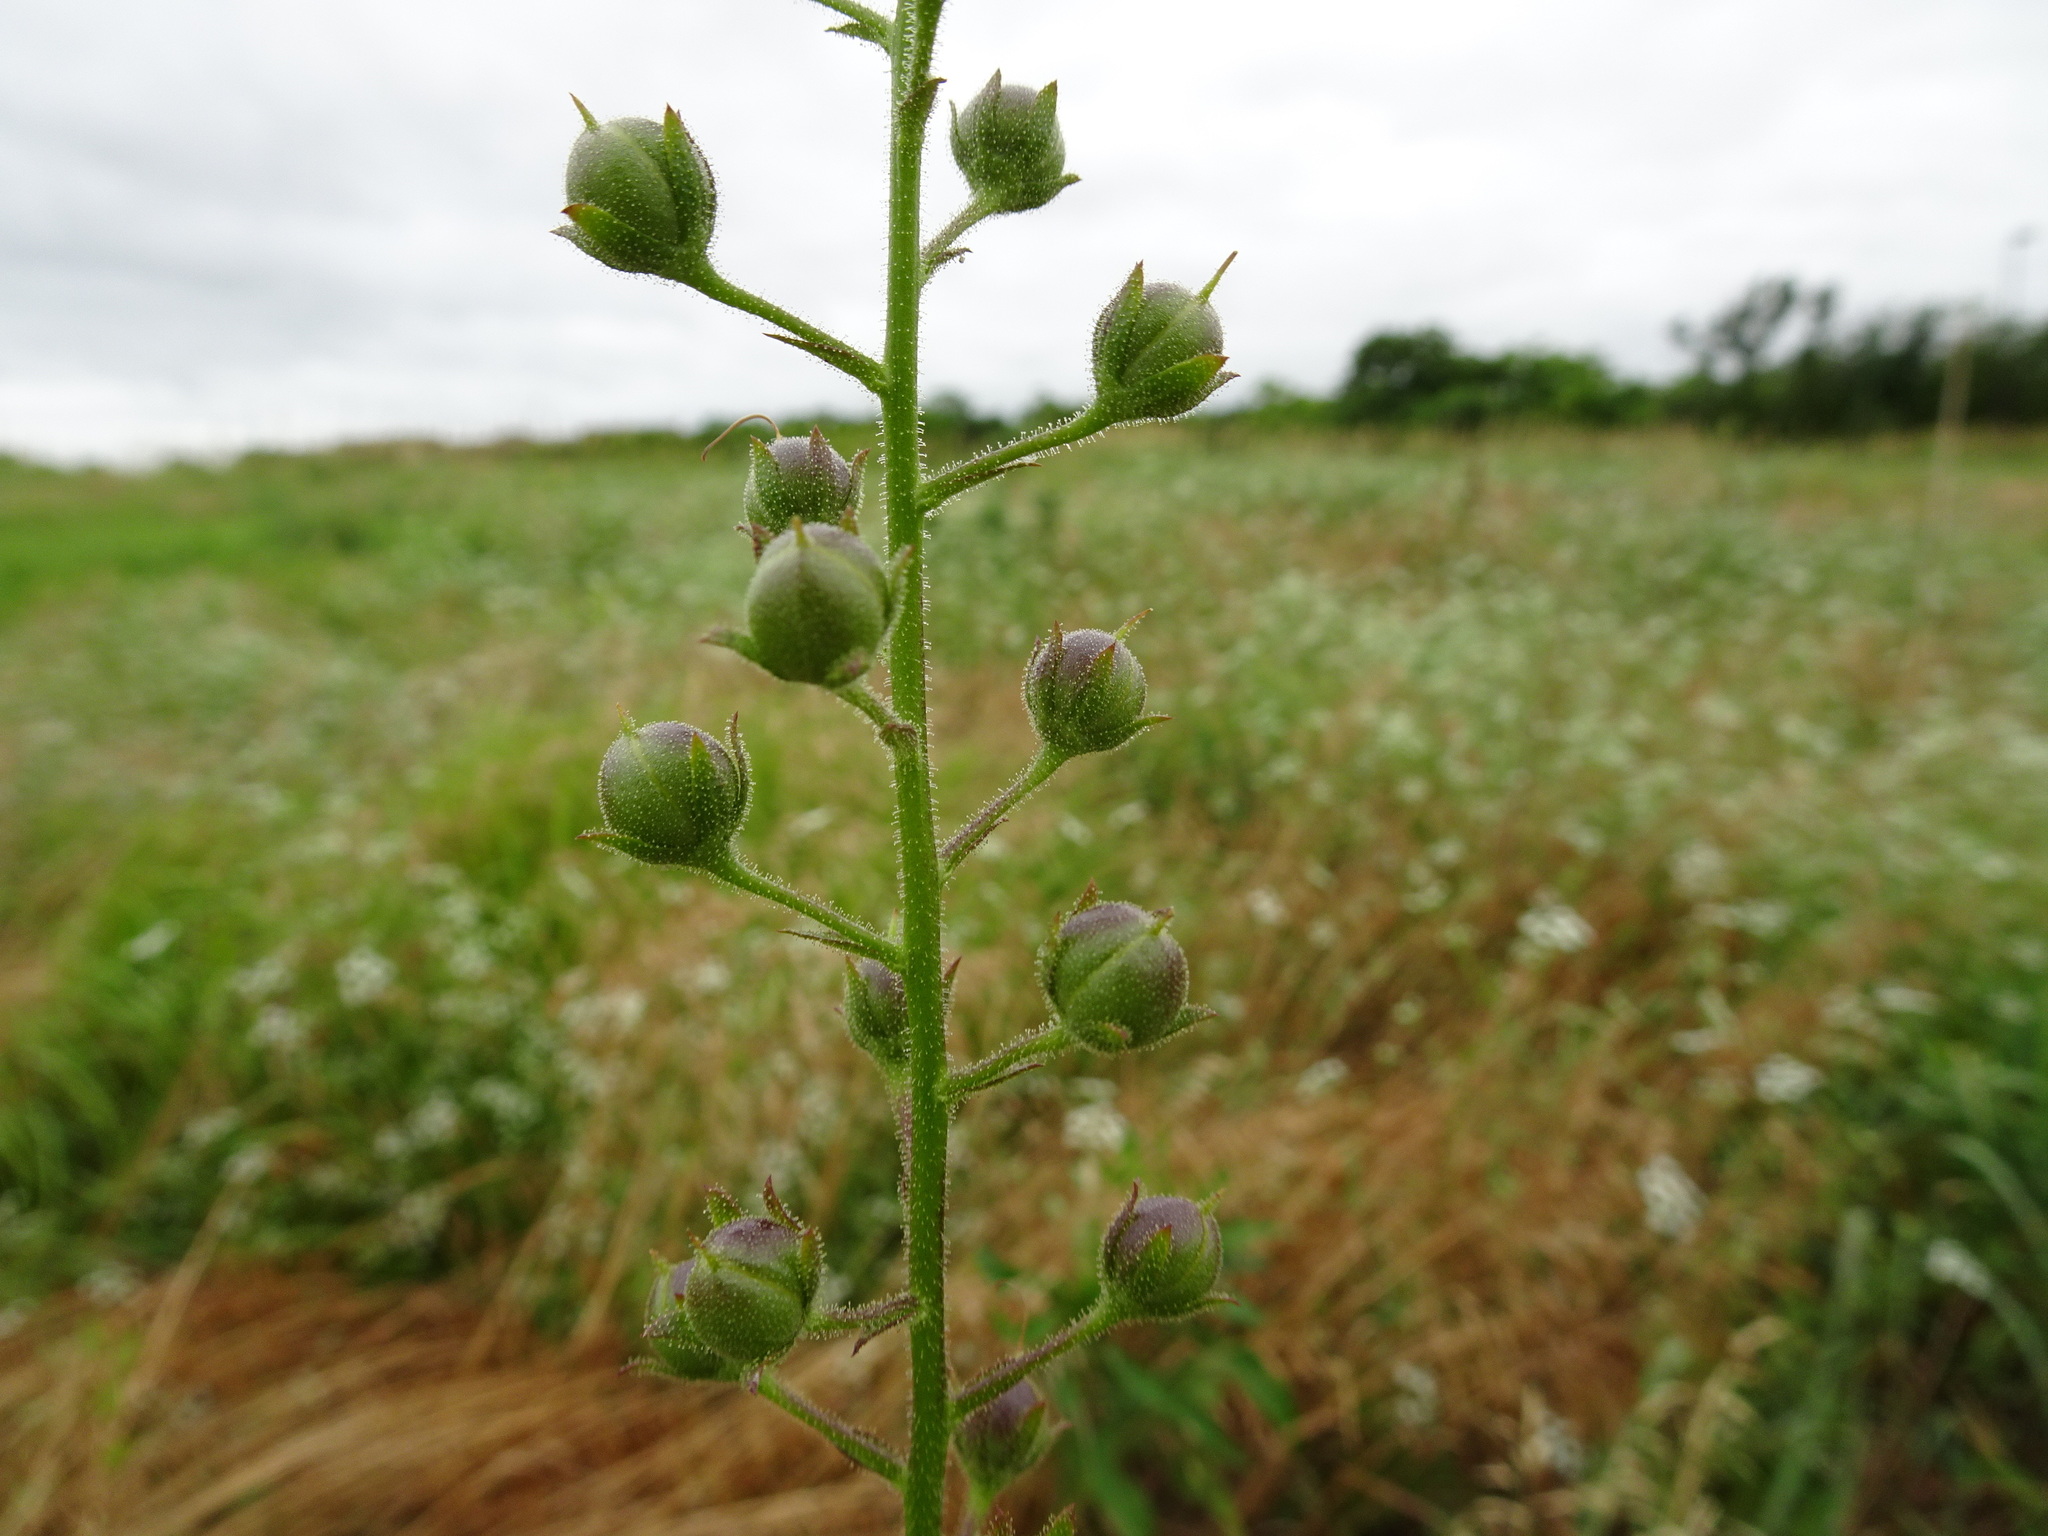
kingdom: Plantae
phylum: Tracheophyta
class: Magnoliopsida
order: Lamiales
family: Scrophulariaceae
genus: Verbascum
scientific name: Verbascum blattaria
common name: Moth mullein
